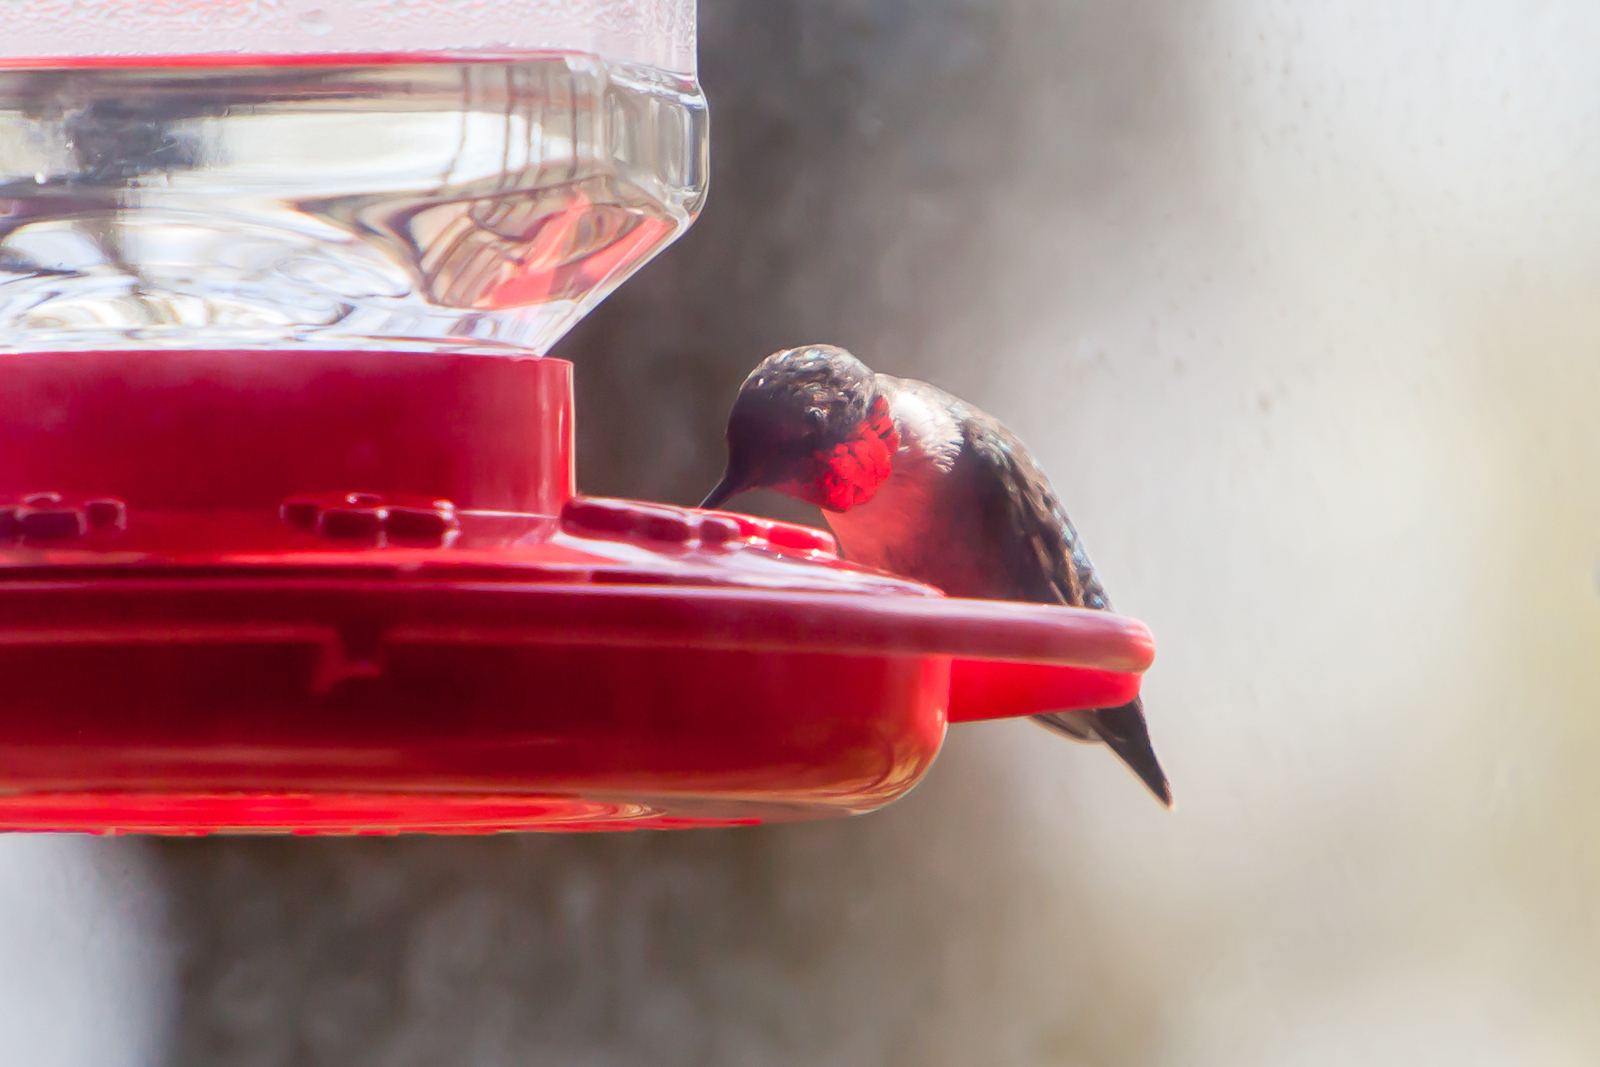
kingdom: Animalia
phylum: Chordata
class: Aves
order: Apodiformes
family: Trochilidae
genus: Archilochus
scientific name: Archilochus colubris
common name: Ruby-throated hummingbird
